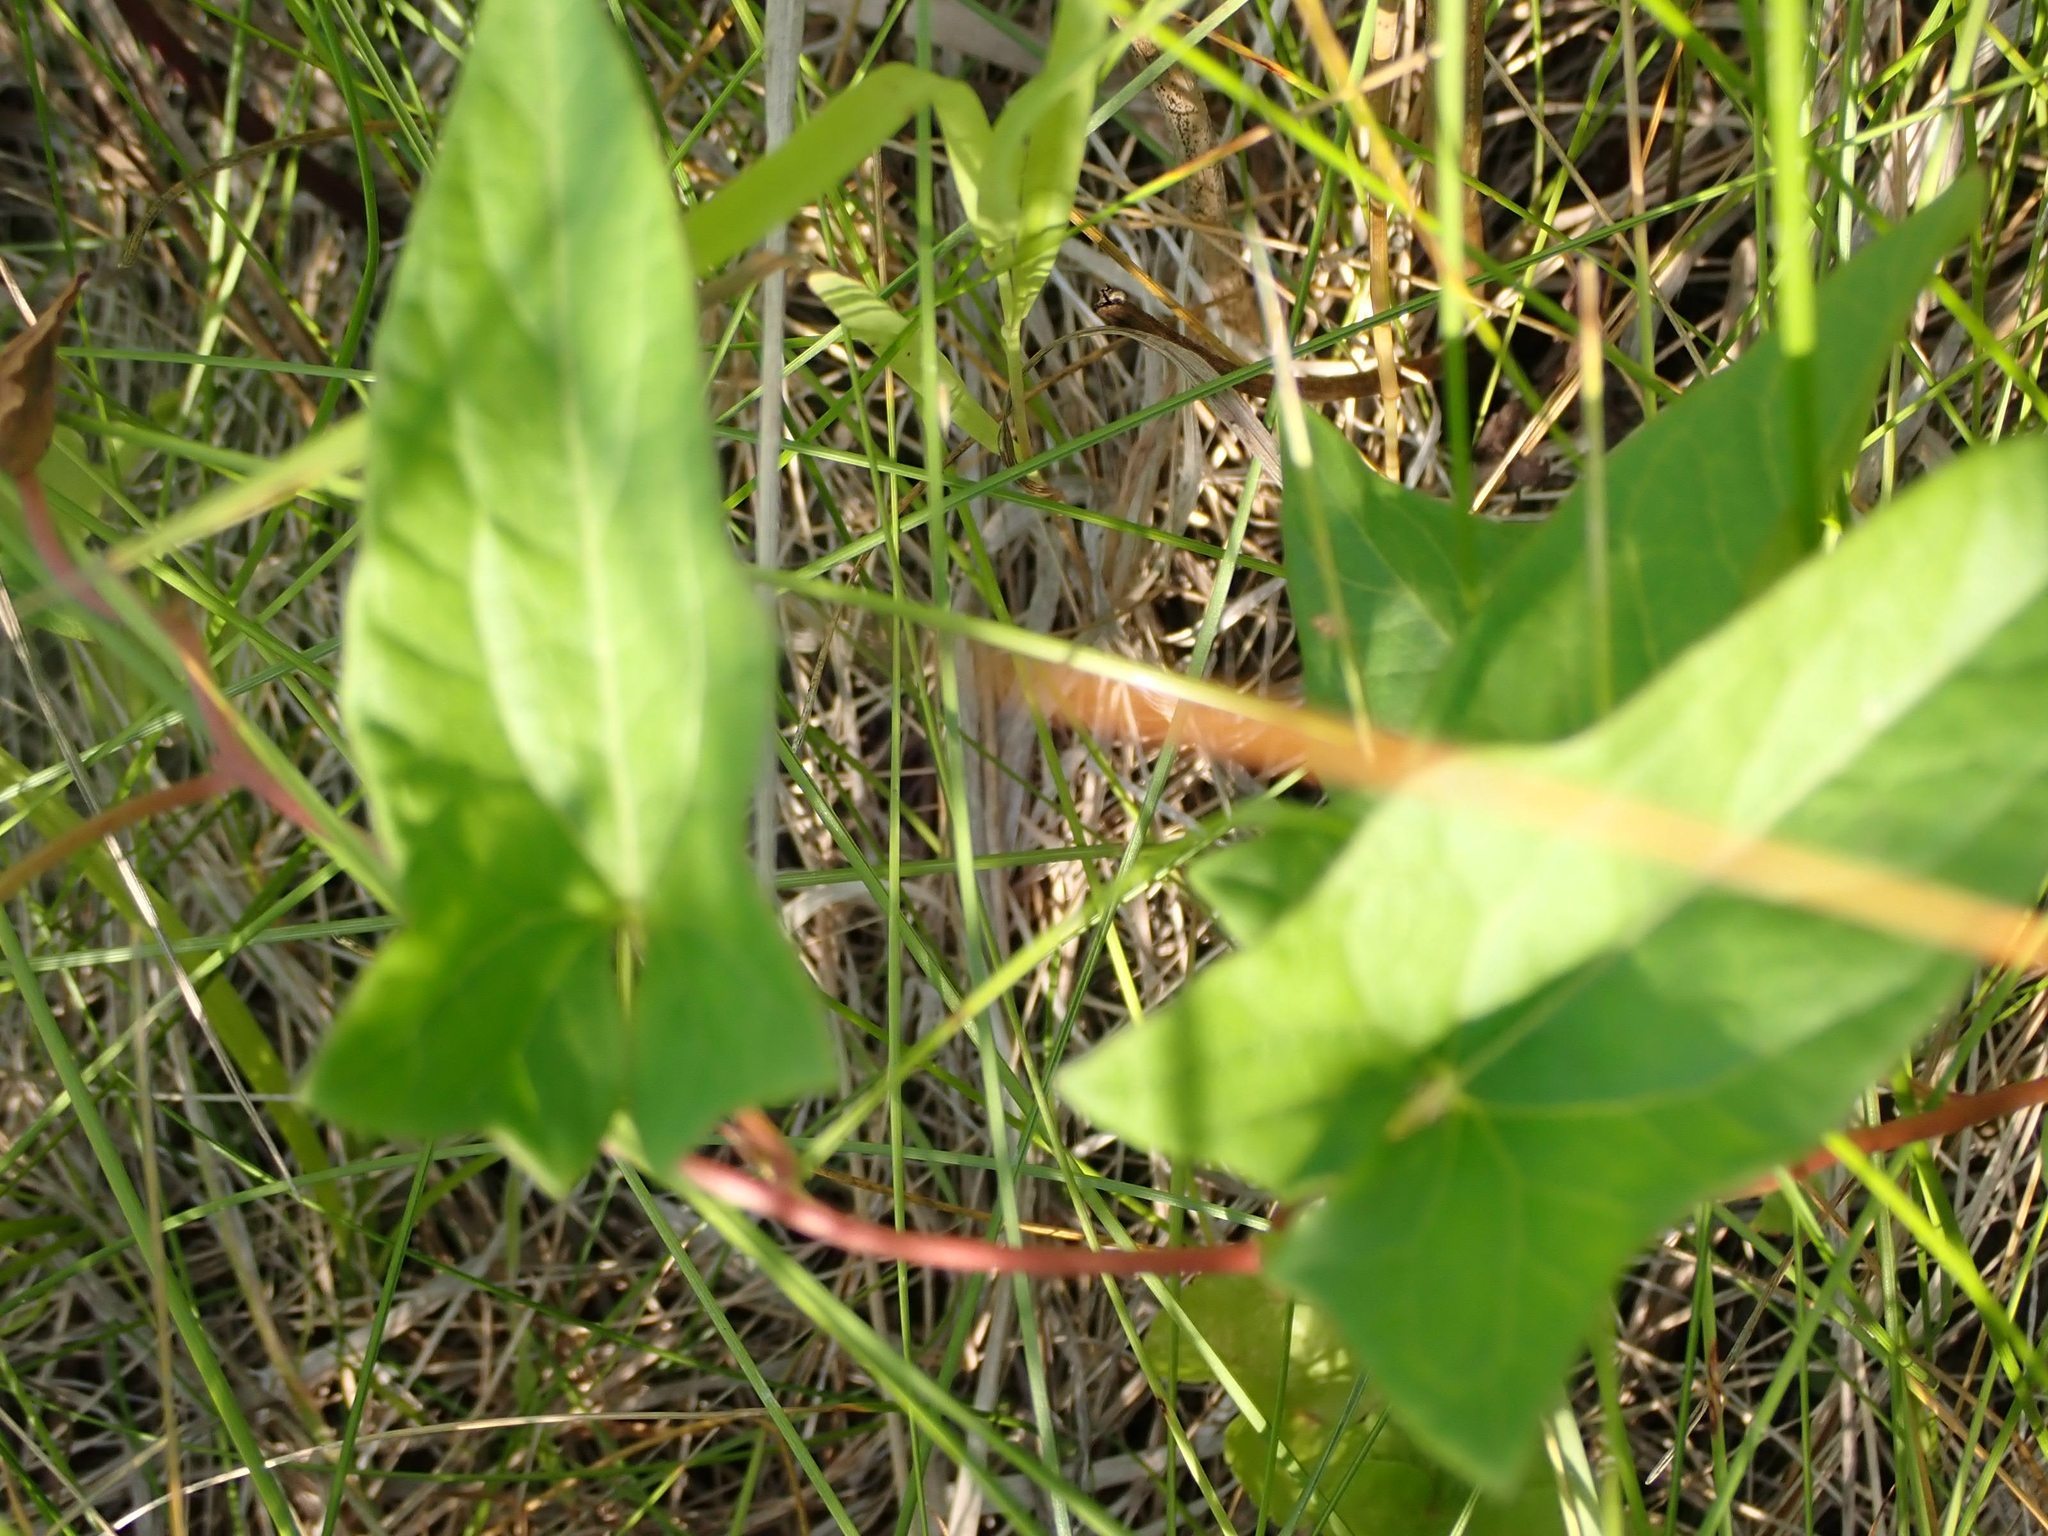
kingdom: Plantae
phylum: Tracheophyta
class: Magnoliopsida
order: Solanales
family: Convolvulaceae
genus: Calystegia
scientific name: Calystegia sepium
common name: Hedge bindweed
